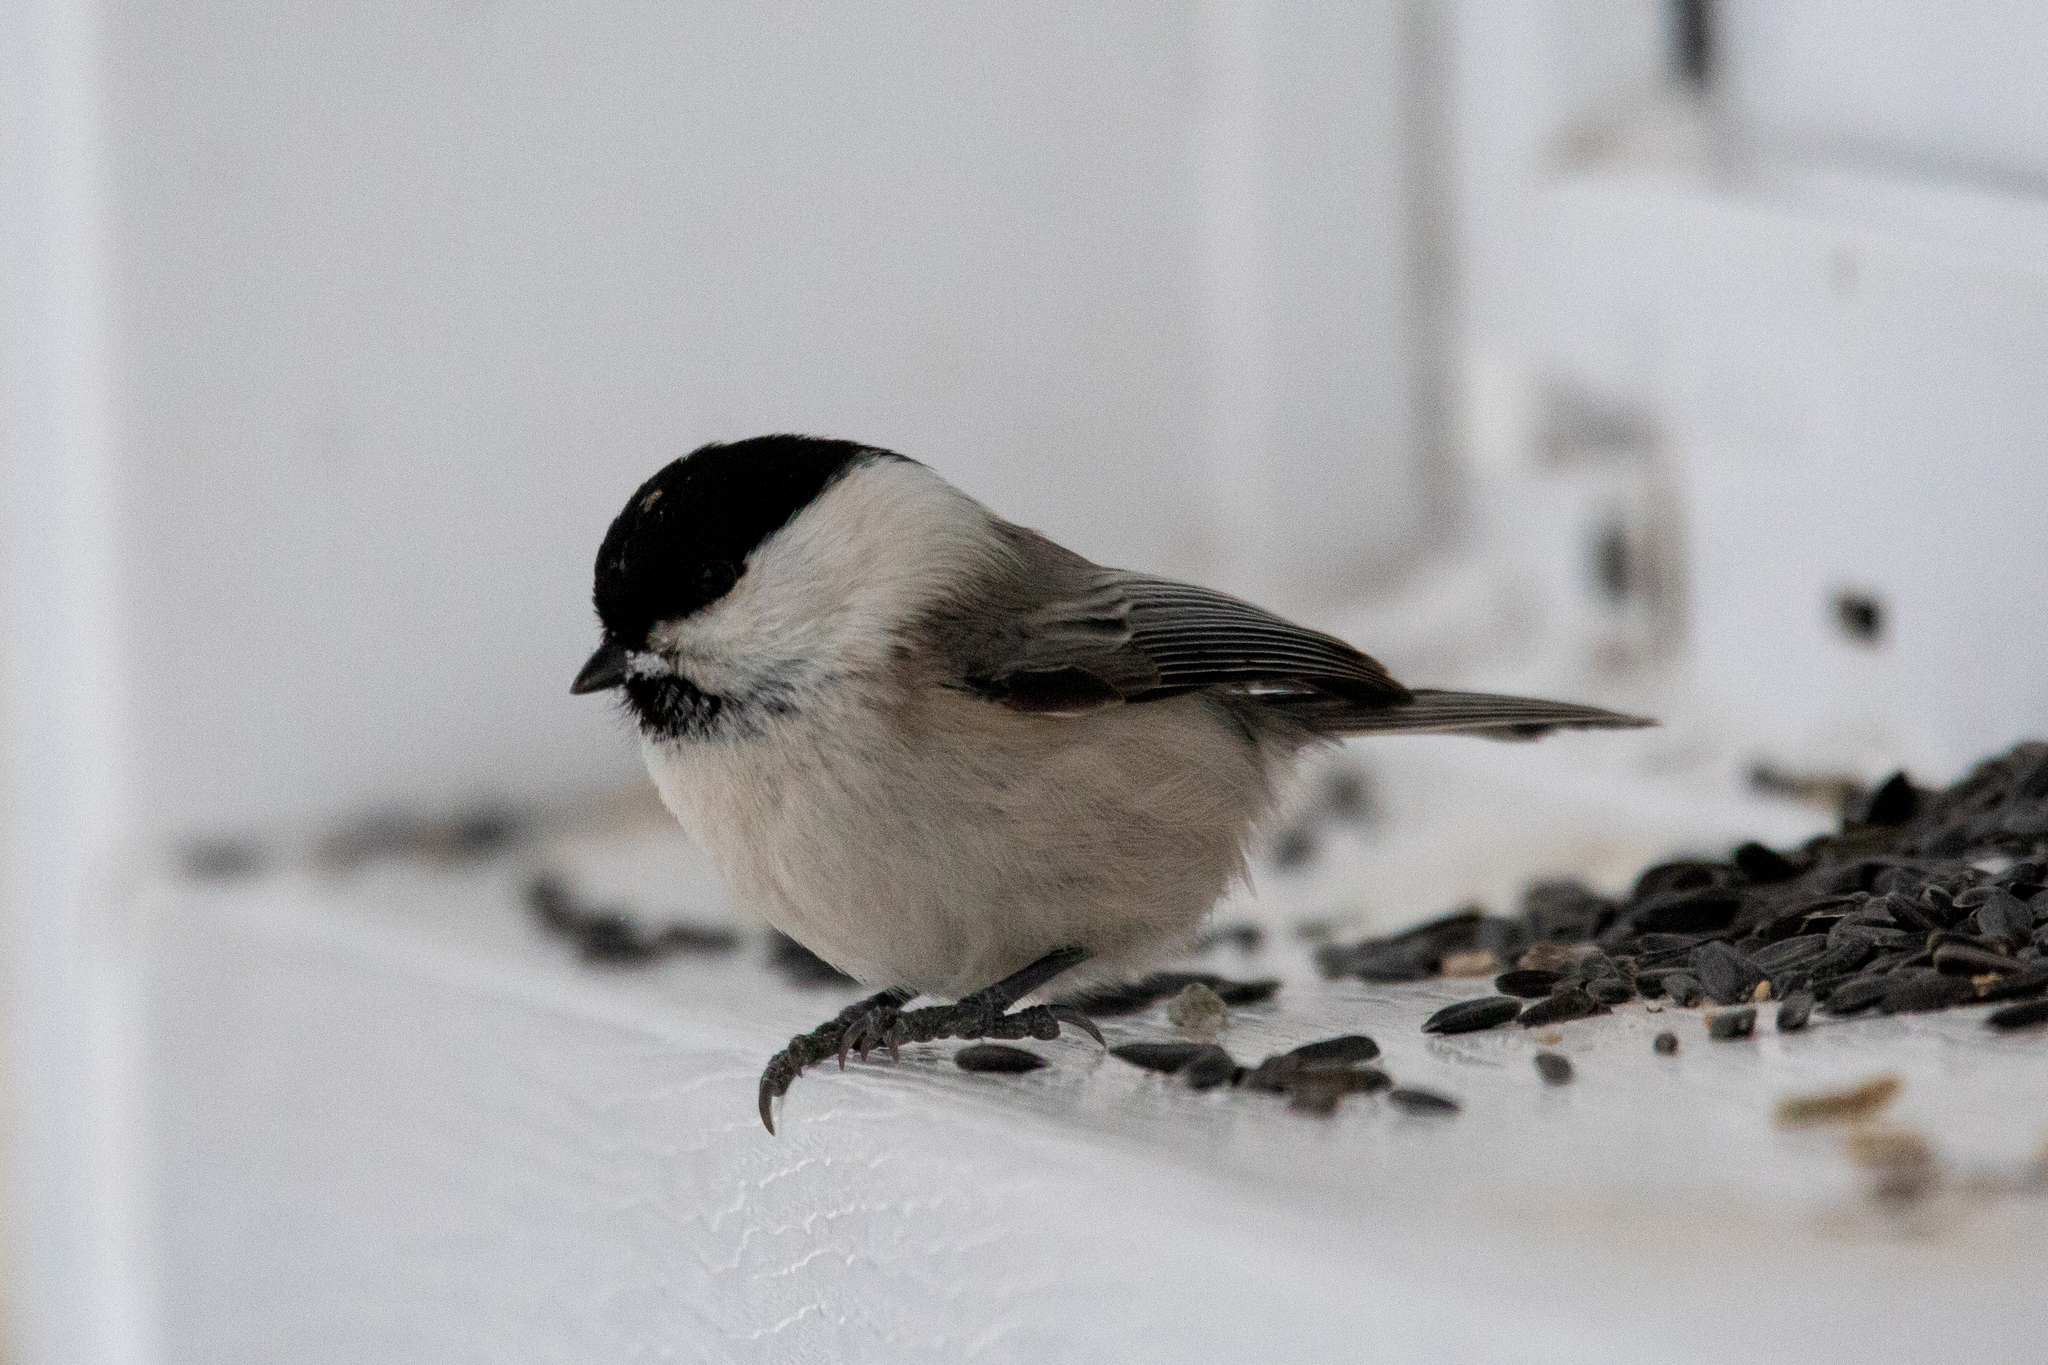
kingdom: Animalia
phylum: Chordata
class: Aves
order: Passeriformes
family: Paridae
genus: Poecile
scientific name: Poecile montanus
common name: Willow tit
